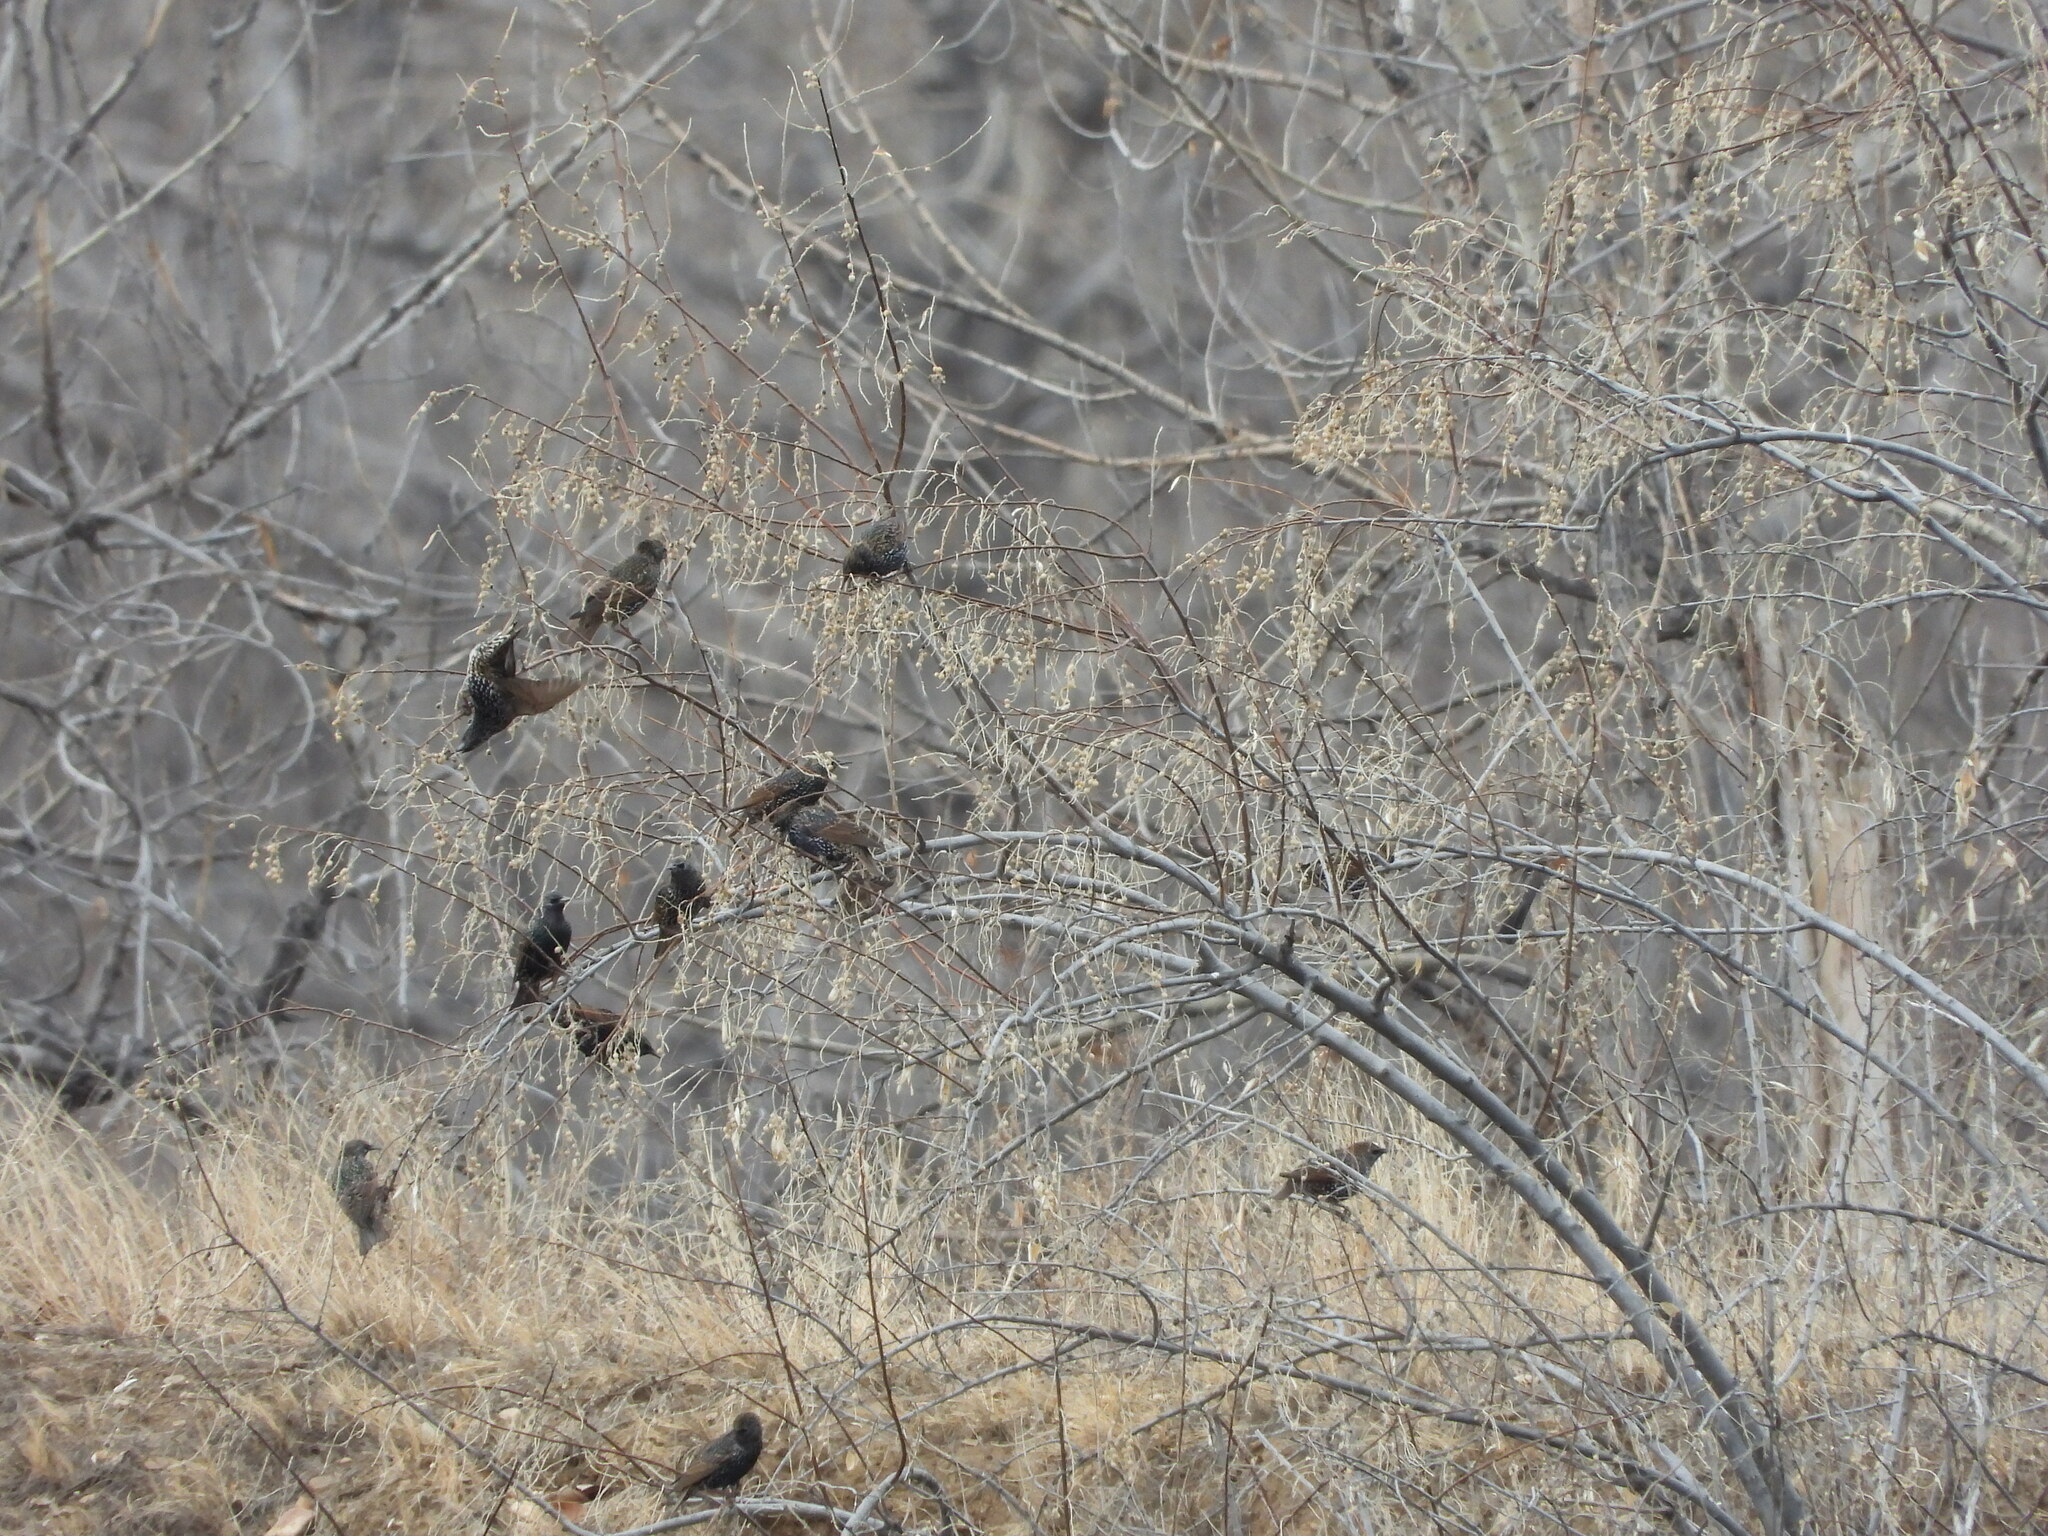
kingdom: Animalia
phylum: Chordata
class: Aves
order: Passeriformes
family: Sturnidae
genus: Sturnus
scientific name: Sturnus vulgaris
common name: Common starling
